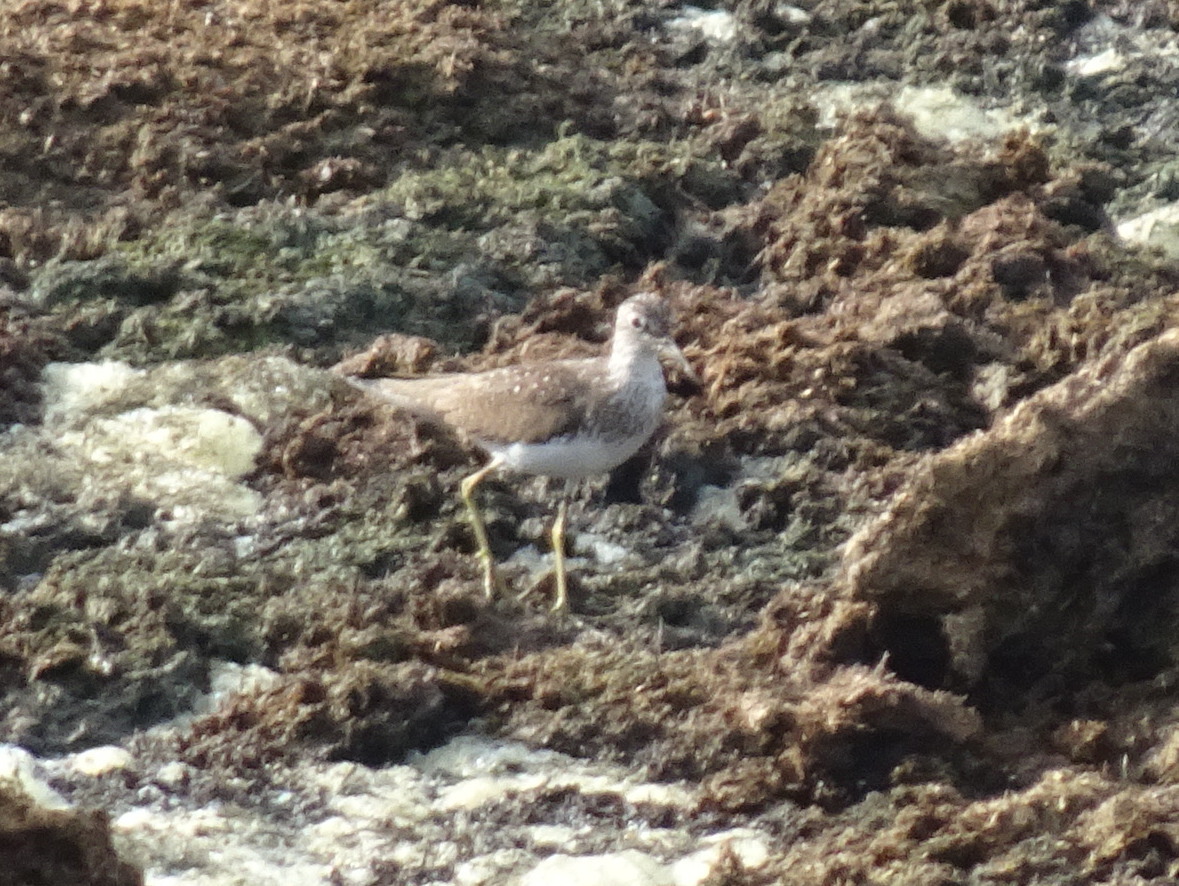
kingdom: Animalia
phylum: Chordata
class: Aves
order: Charadriiformes
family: Scolopacidae
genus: Tringa
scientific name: Tringa solitaria
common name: Solitary sandpiper
